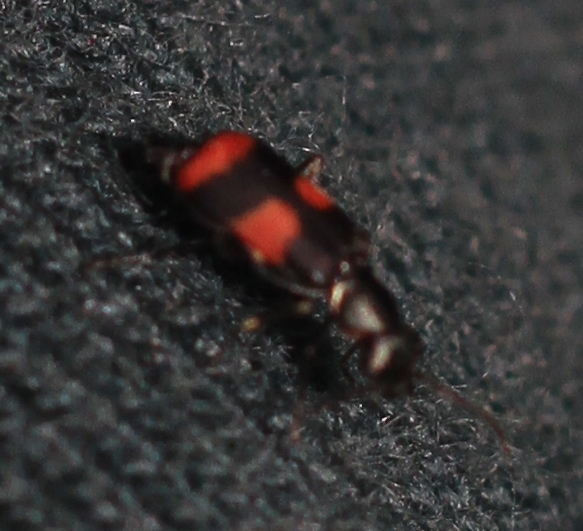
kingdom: Animalia
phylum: Arthropoda
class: Insecta
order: Coleoptera
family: Melyridae
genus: Anthocomus
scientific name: Anthocomus fasciatus
